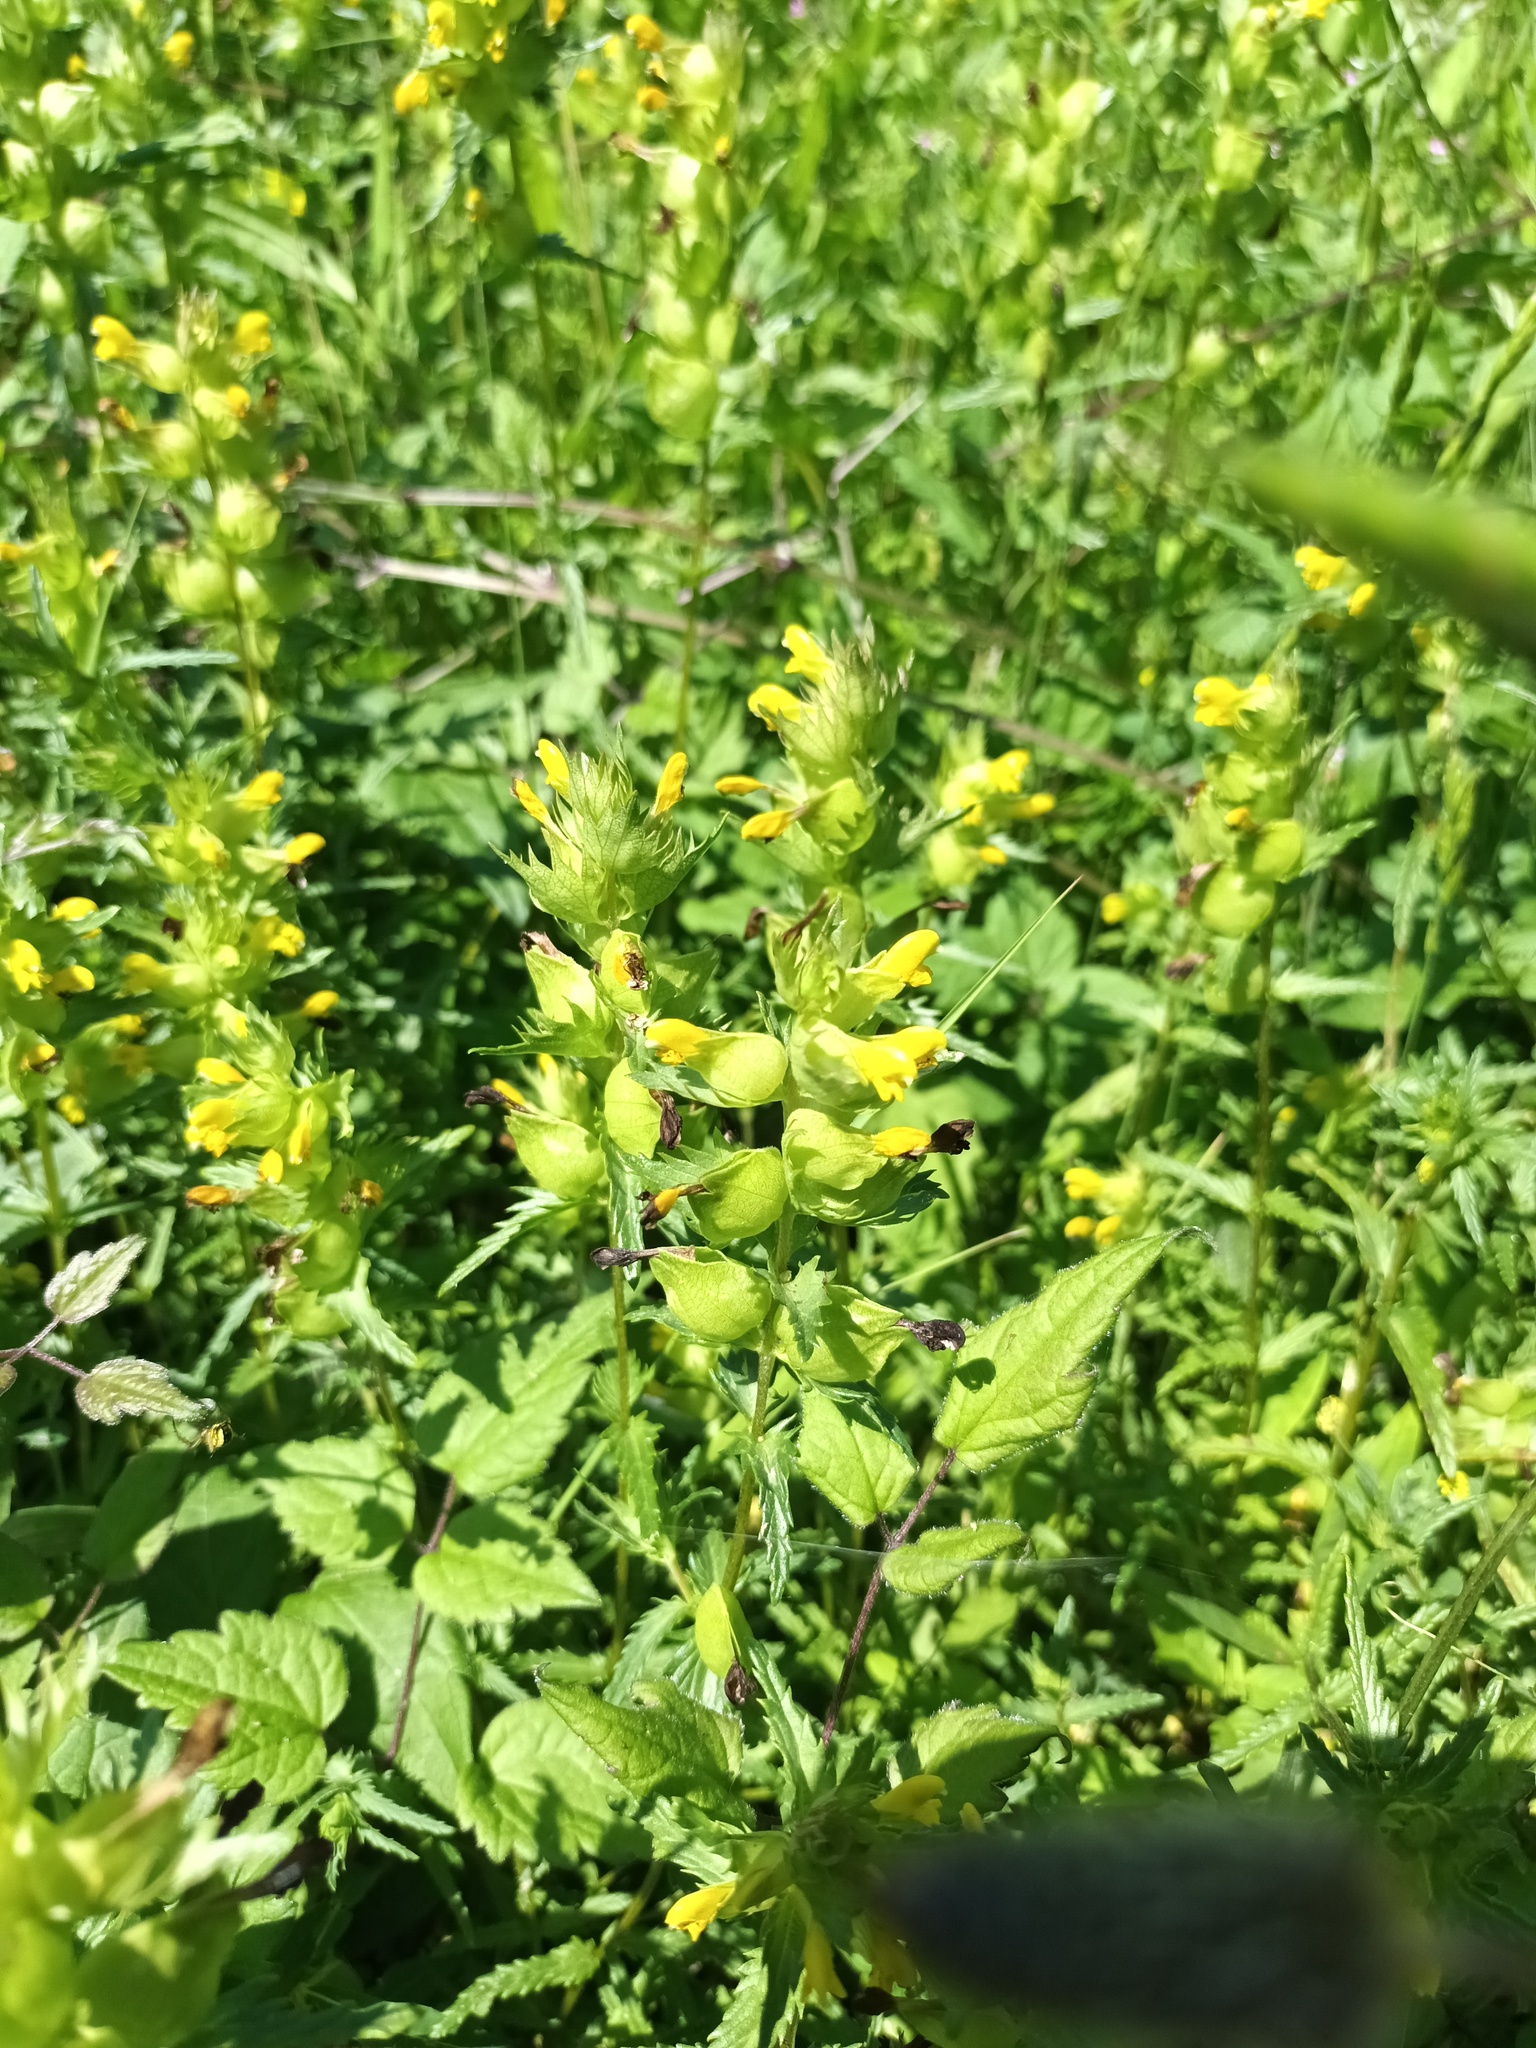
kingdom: Plantae
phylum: Tracheophyta
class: Magnoliopsida
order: Lamiales
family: Orobanchaceae
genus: Rhinanthus
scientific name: Rhinanthus minor
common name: Yellow-rattle
